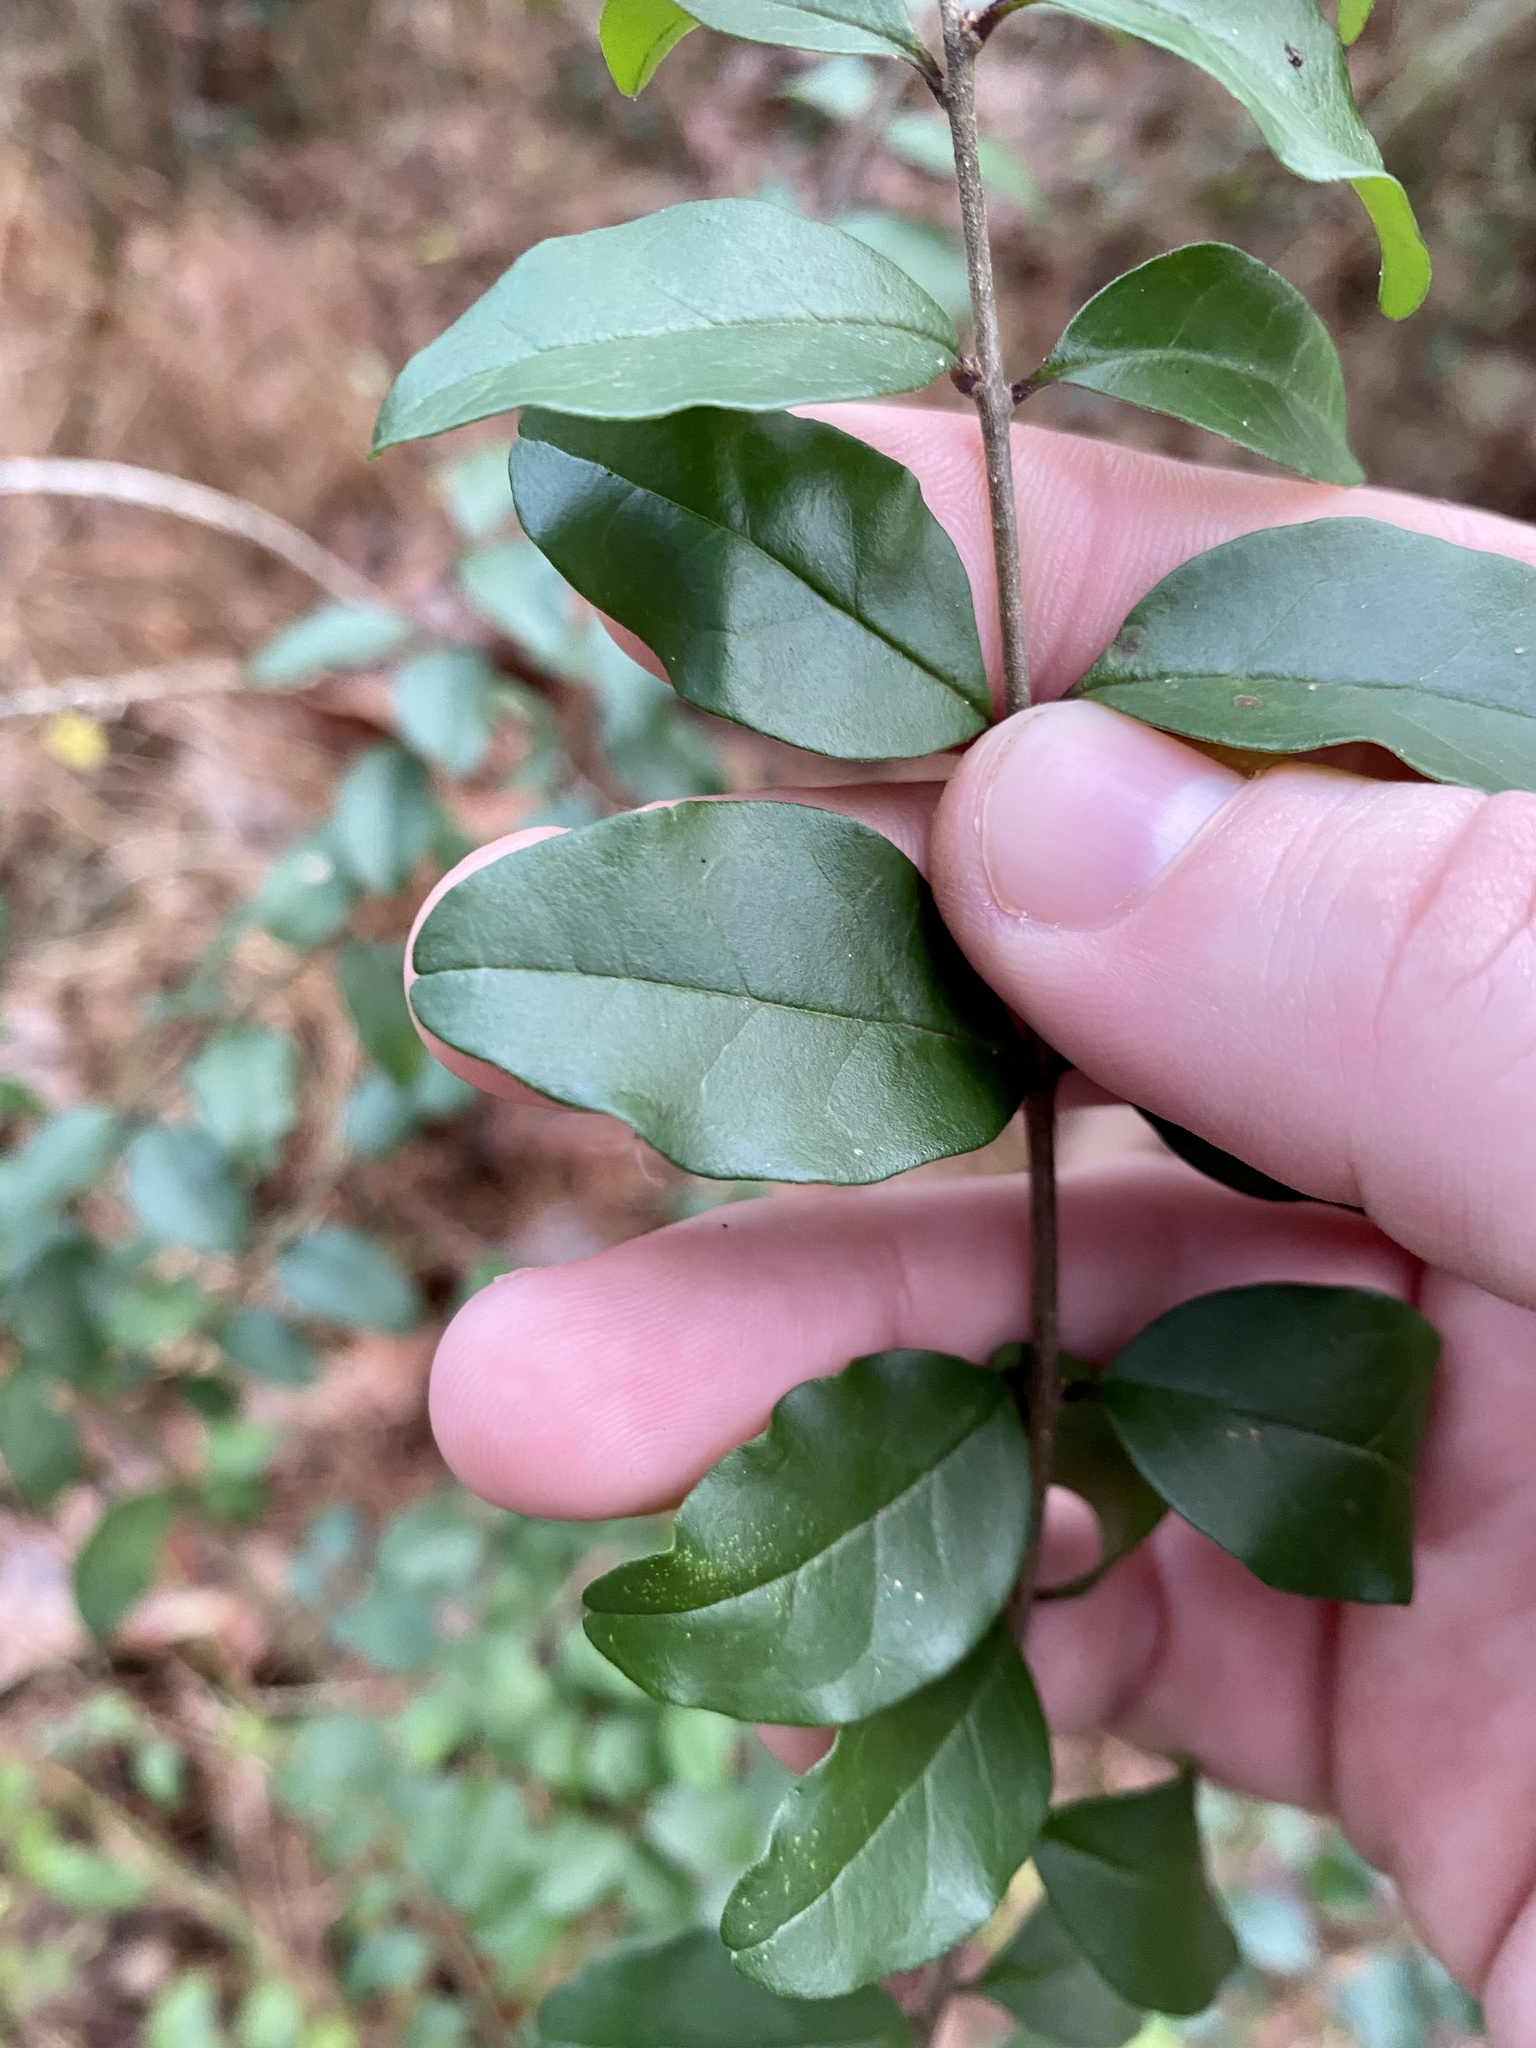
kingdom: Plantae
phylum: Tracheophyta
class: Magnoliopsida
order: Lamiales
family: Oleaceae
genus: Ligustrum
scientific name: Ligustrum sinense
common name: Chinese privet
